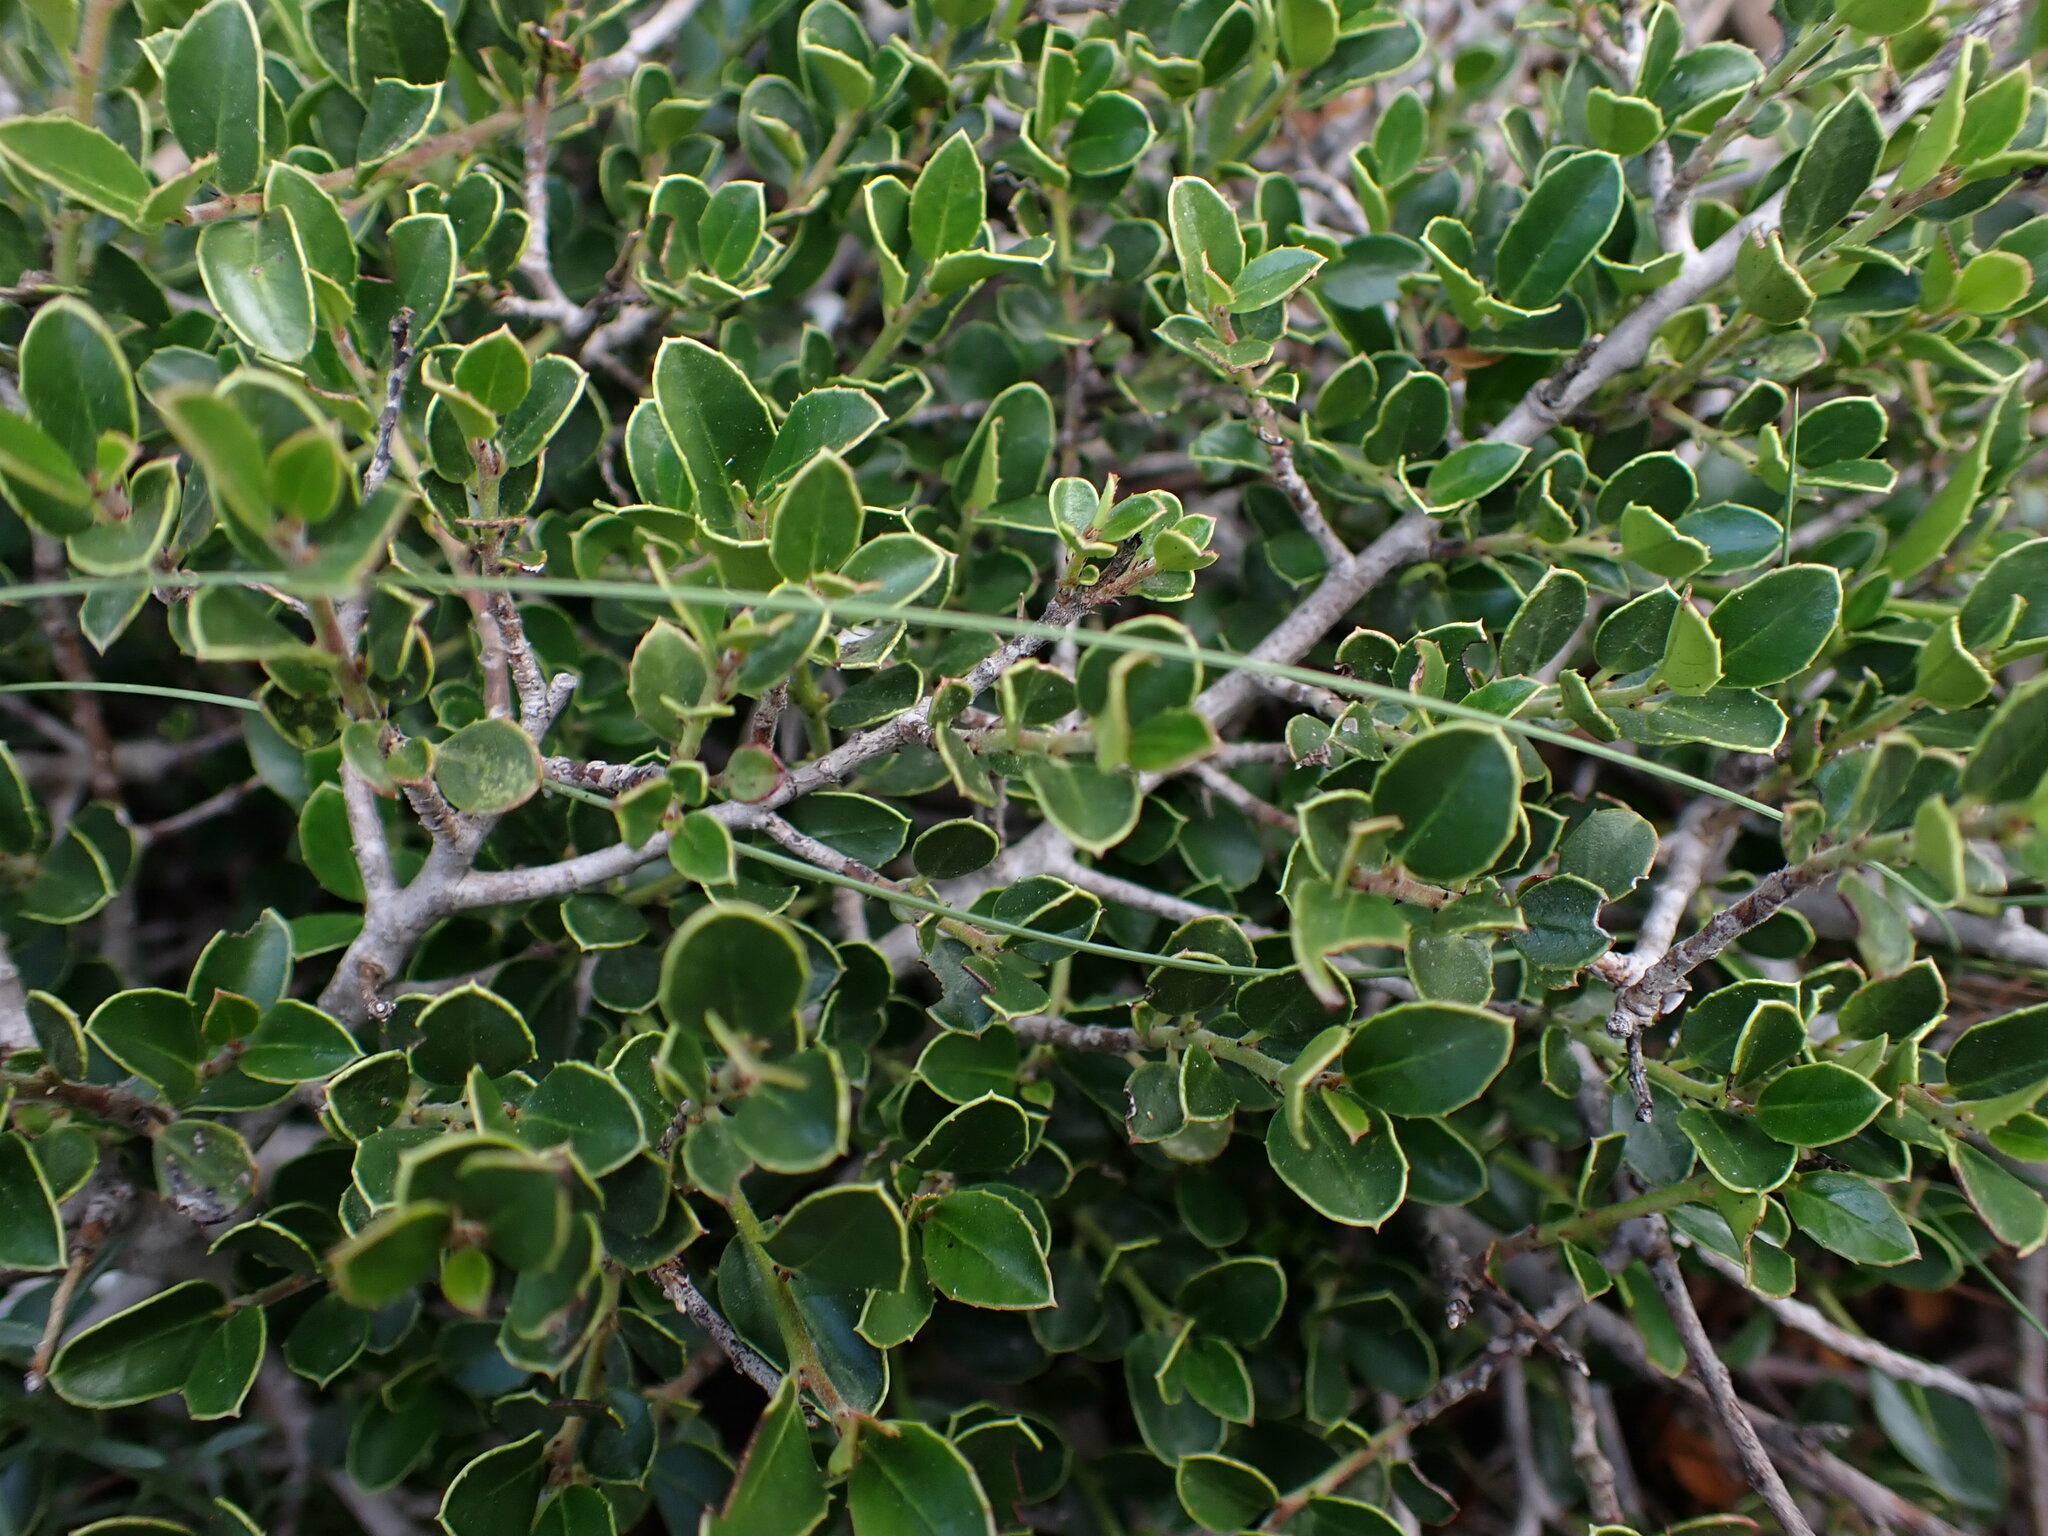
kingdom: Plantae
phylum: Tracheophyta
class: Magnoliopsida
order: Rosales
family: Rhamnaceae
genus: Rhamnus
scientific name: Rhamnus alaternus
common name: Mediterranean buckthorn
